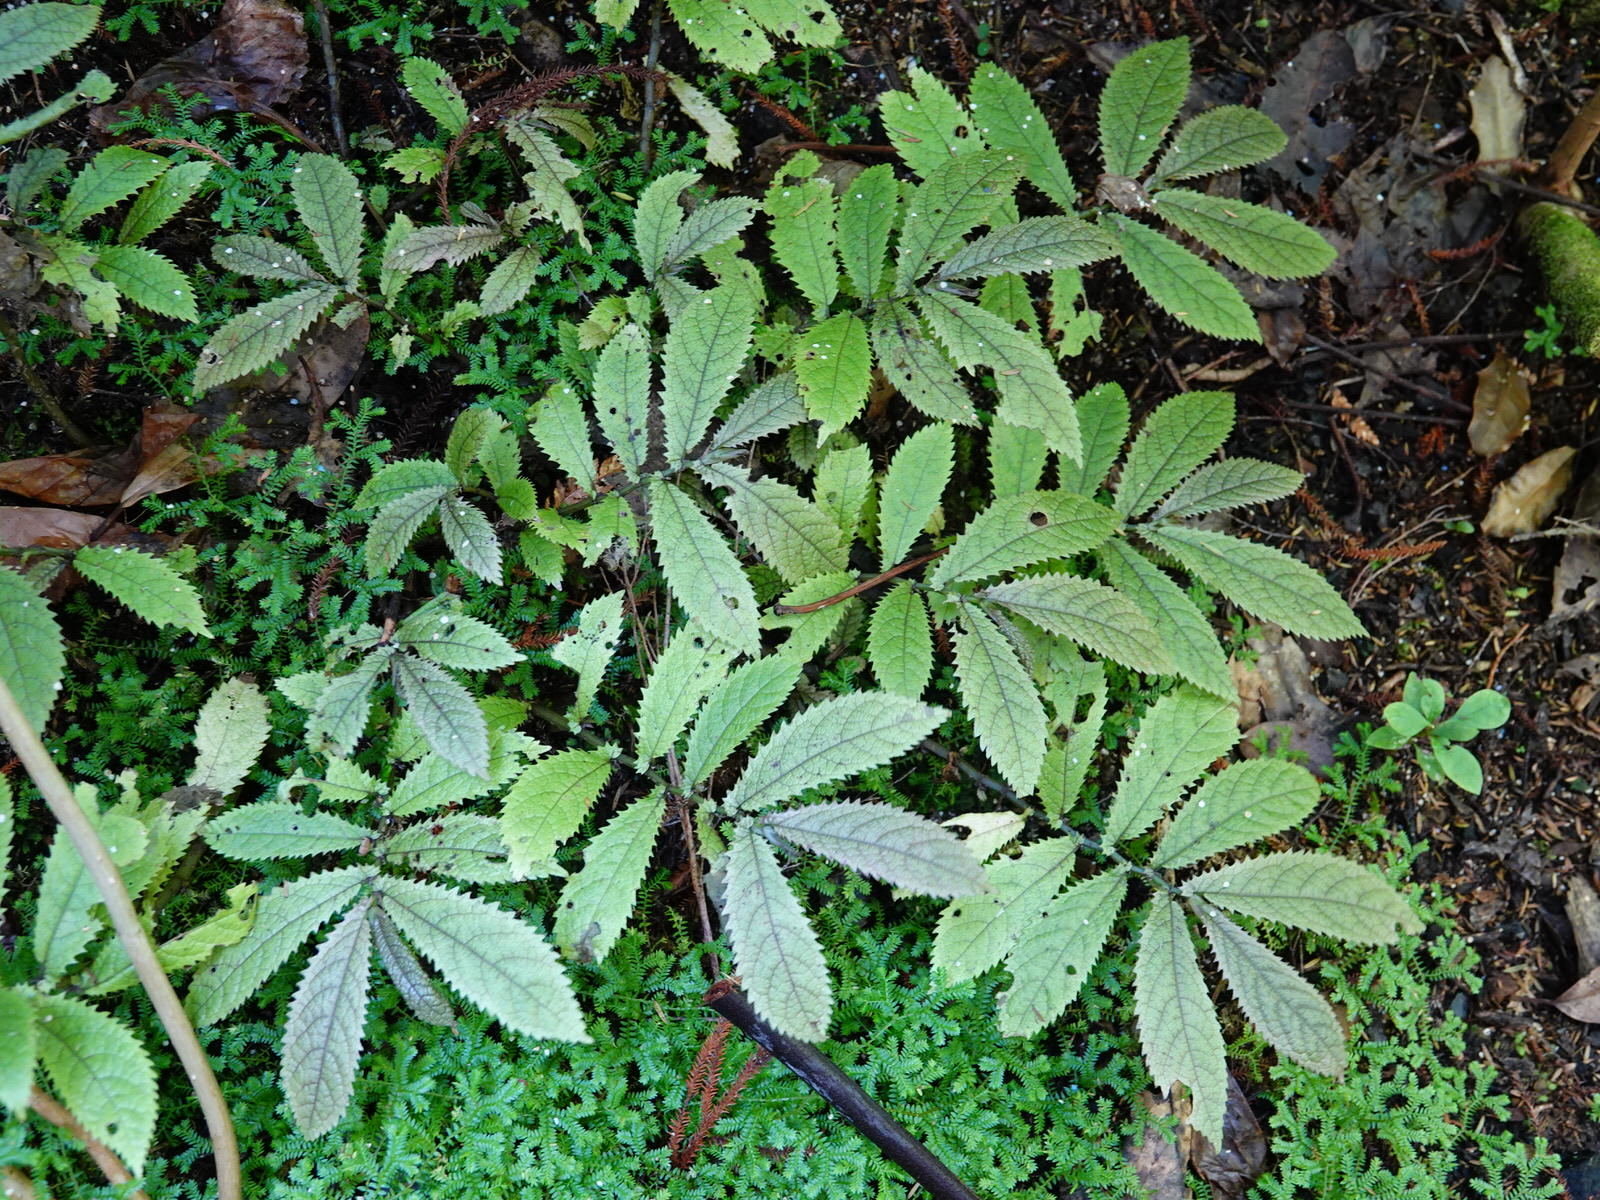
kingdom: Plantae
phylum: Tracheophyta
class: Magnoliopsida
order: Rosales
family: Urticaceae
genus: Elatostema
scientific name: Elatostema rugosum
